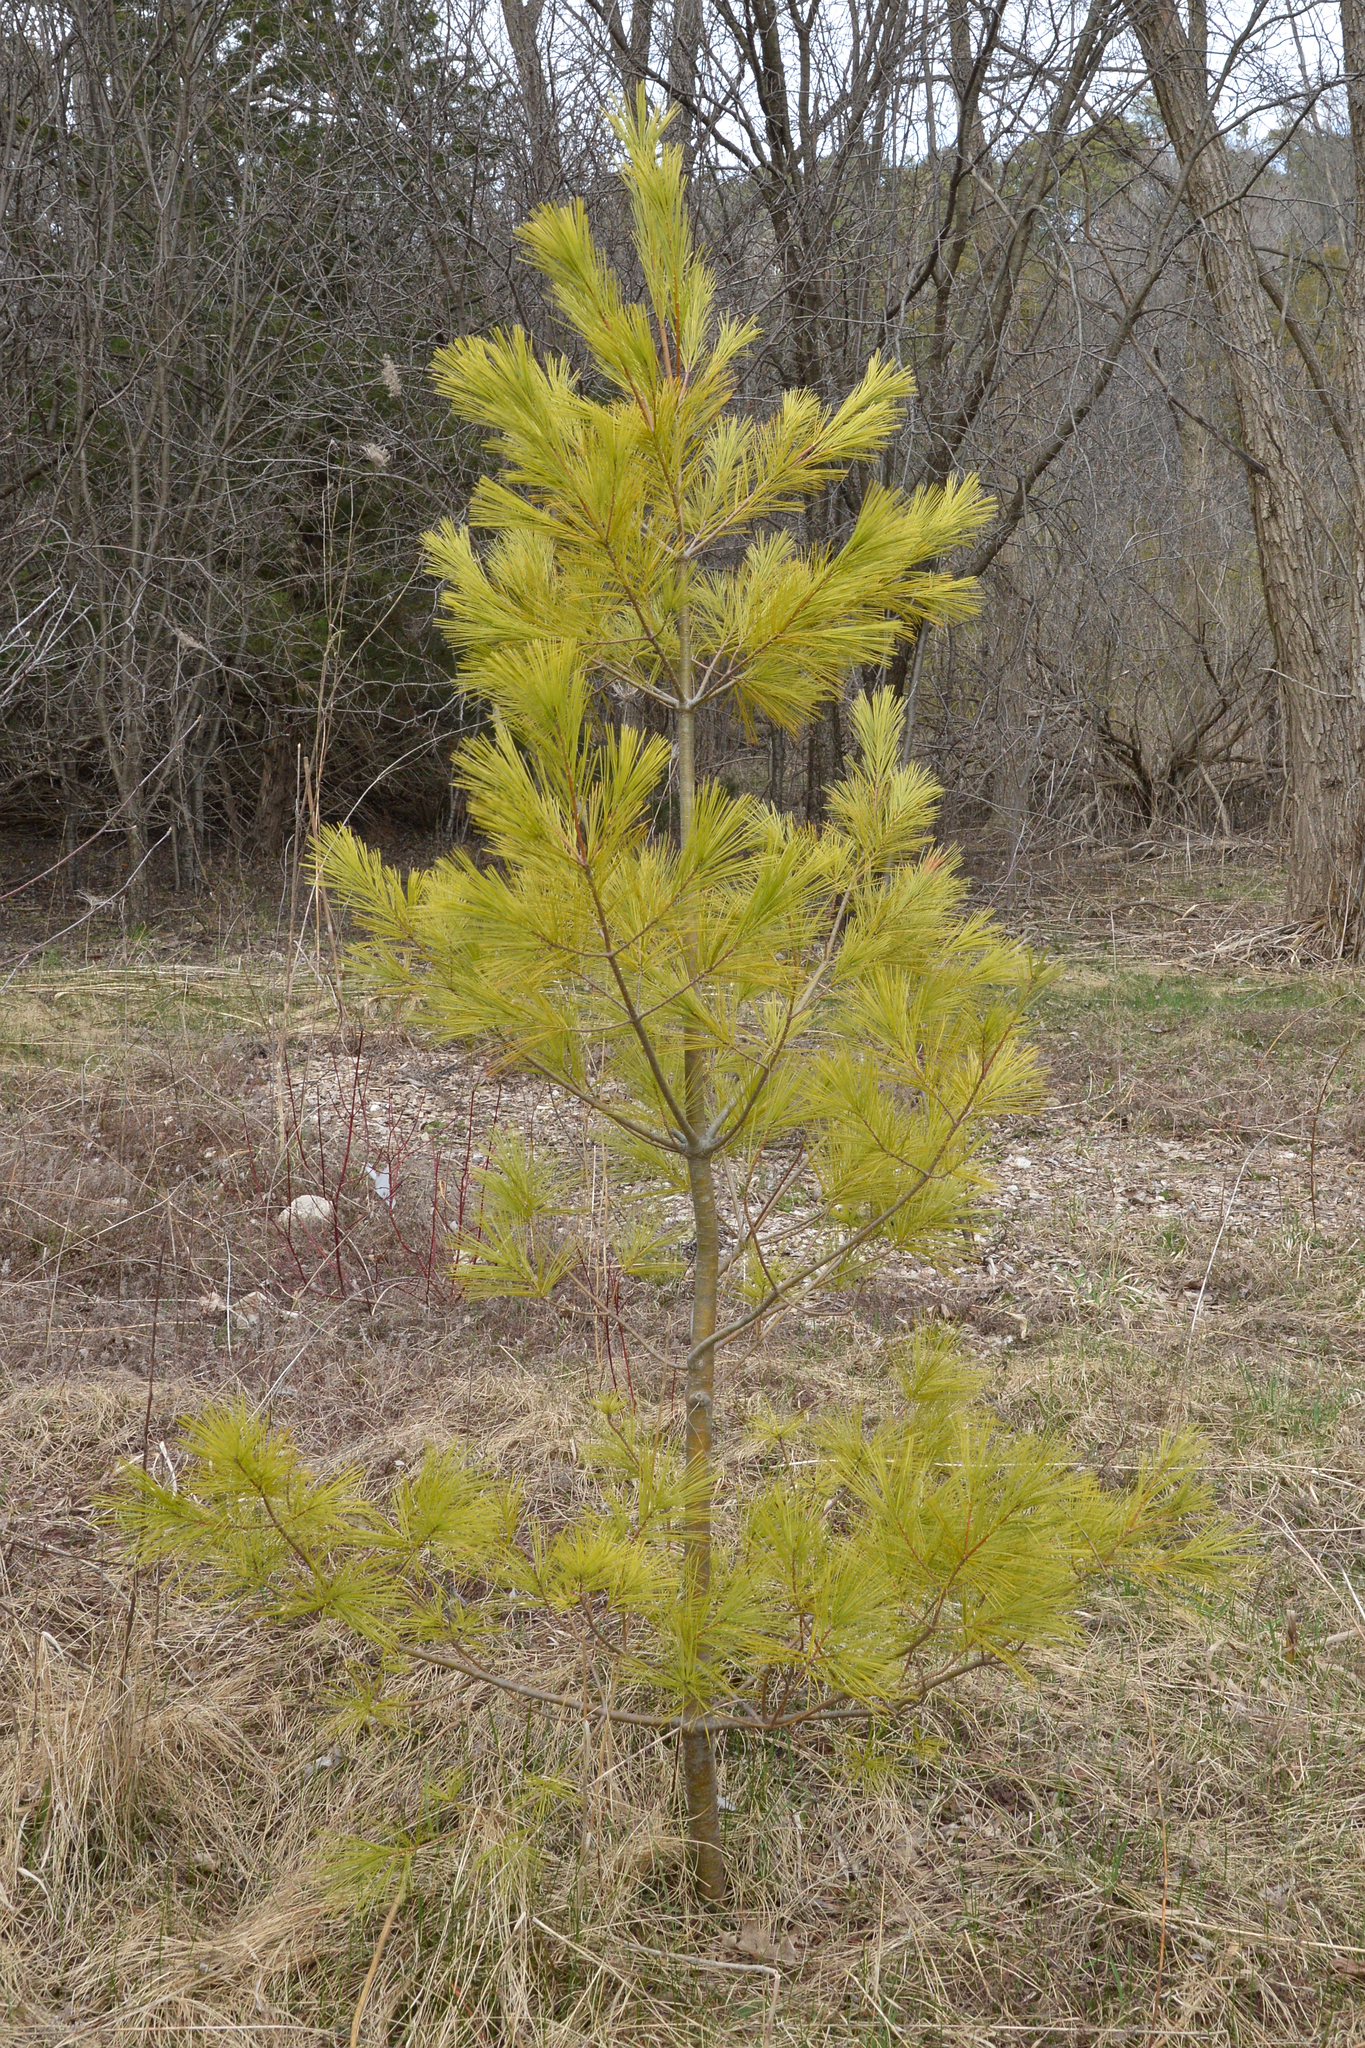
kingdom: Plantae
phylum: Tracheophyta
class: Pinopsida
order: Pinales
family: Pinaceae
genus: Pinus
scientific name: Pinus strobus
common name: Weymouth pine
